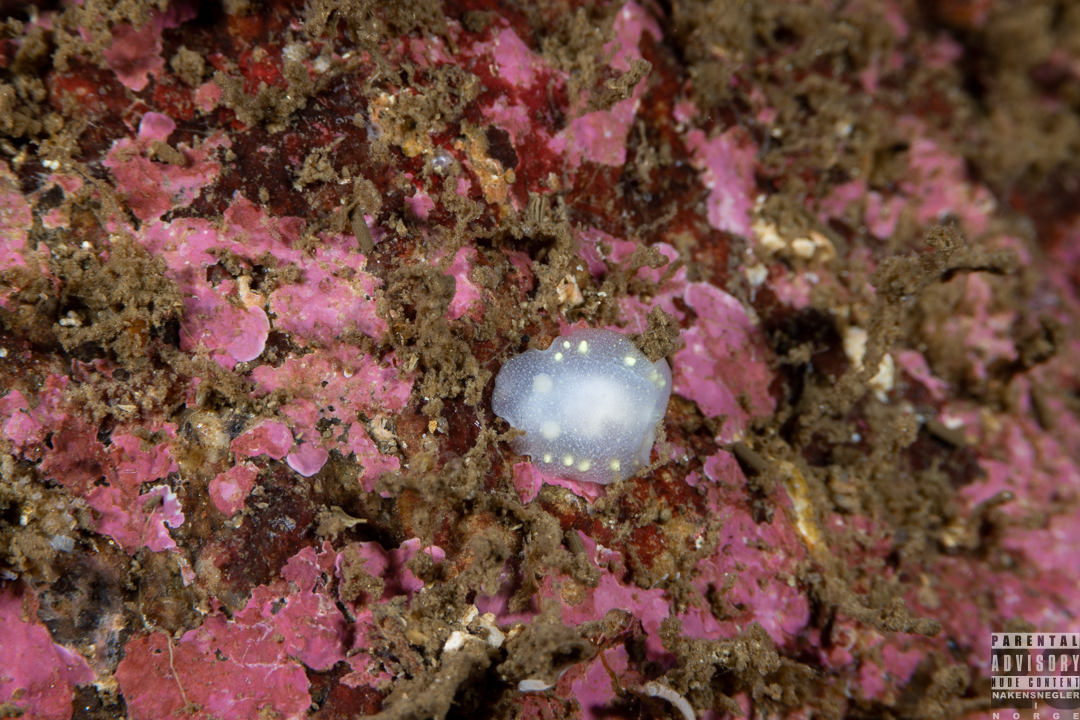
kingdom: Animalia
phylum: Mollusca
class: Gastropoda
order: Nudibranchia
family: Cadlinidae
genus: Cadlina
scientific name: Cadlina laevis
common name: White atlantic cadlina
